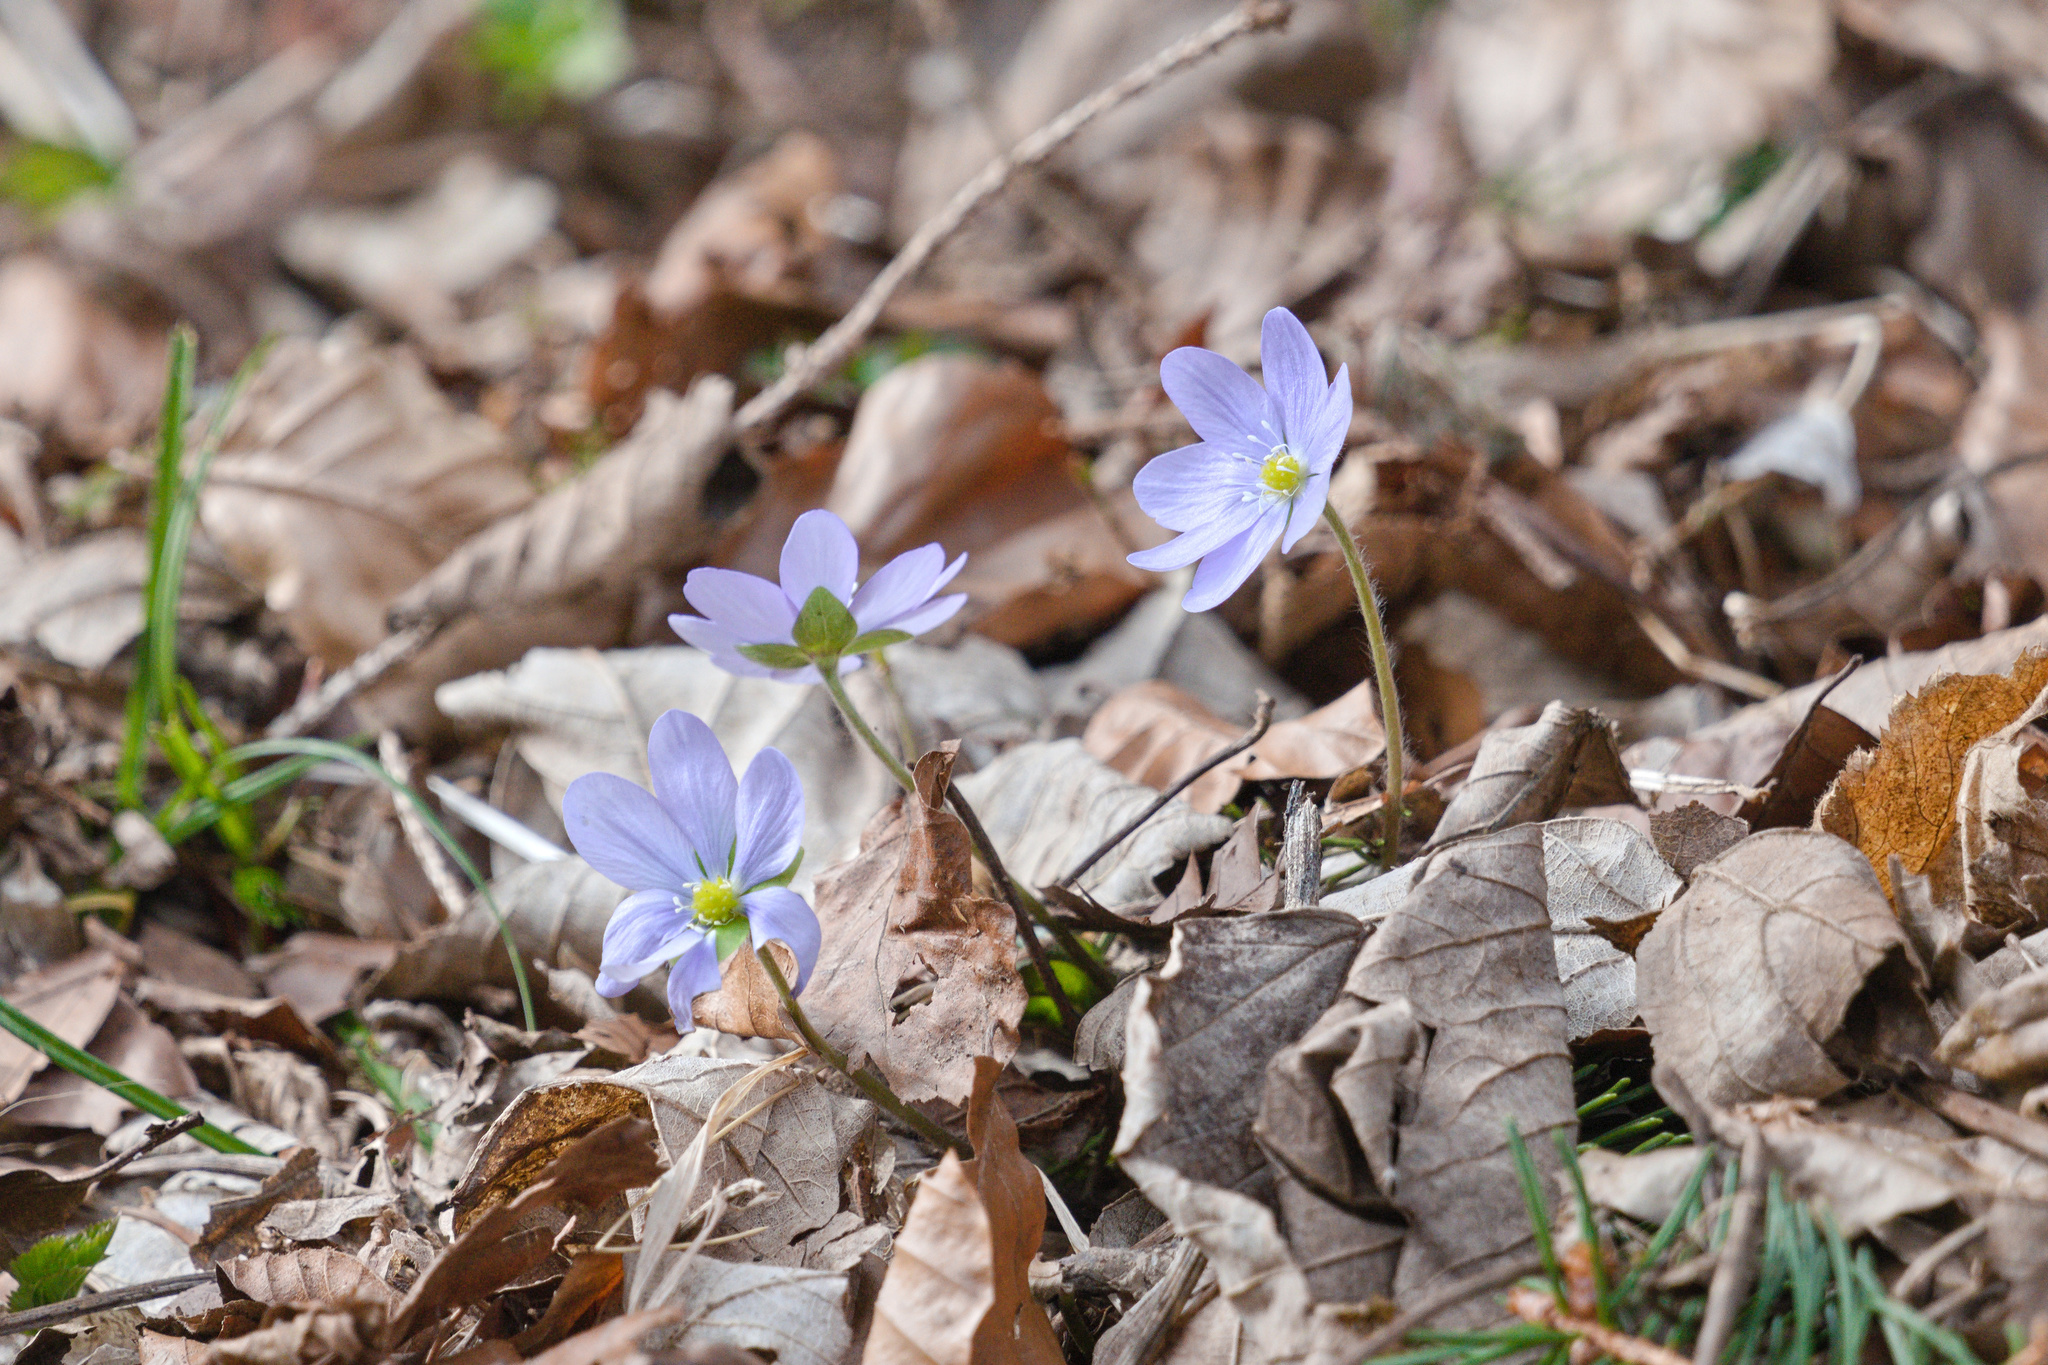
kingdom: Plantae
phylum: Tracheophyta
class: Magnoliopsida
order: Ranunculales
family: Ranunculaceae
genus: Hepatica
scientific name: Hepatica nobilis
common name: Liverleaf
